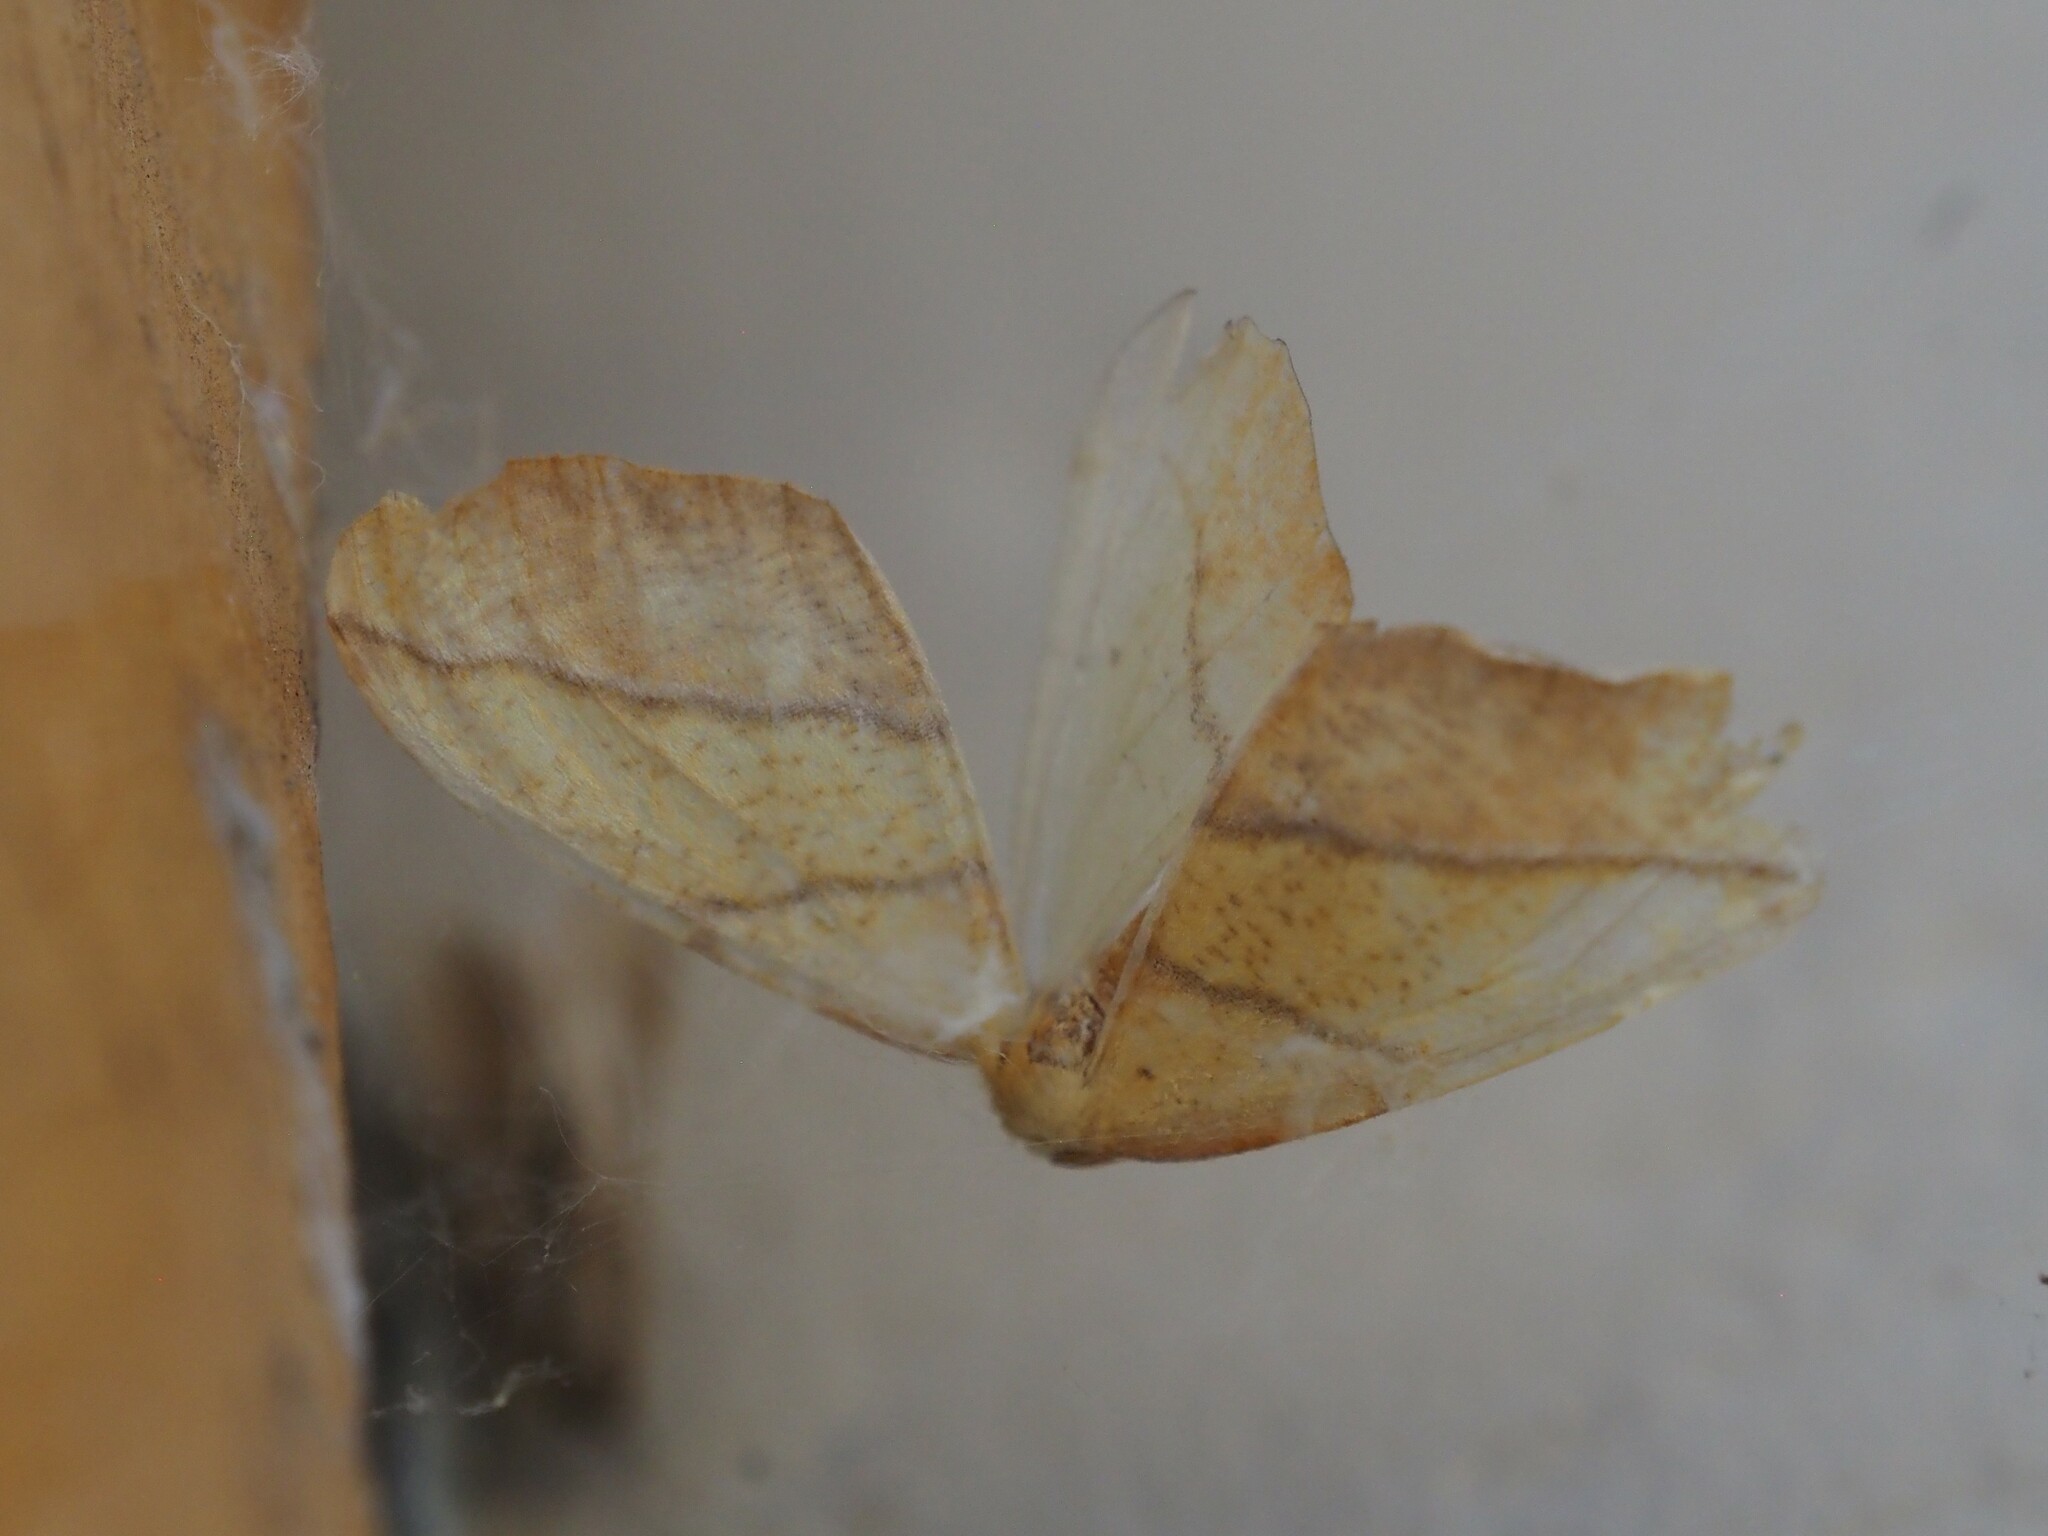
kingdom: Animalia
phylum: Arthropoda
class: Insecta
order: Lepidoptera
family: Geometridae
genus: Sicya
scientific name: Sicya macularia
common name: Sharp-lined yellow
